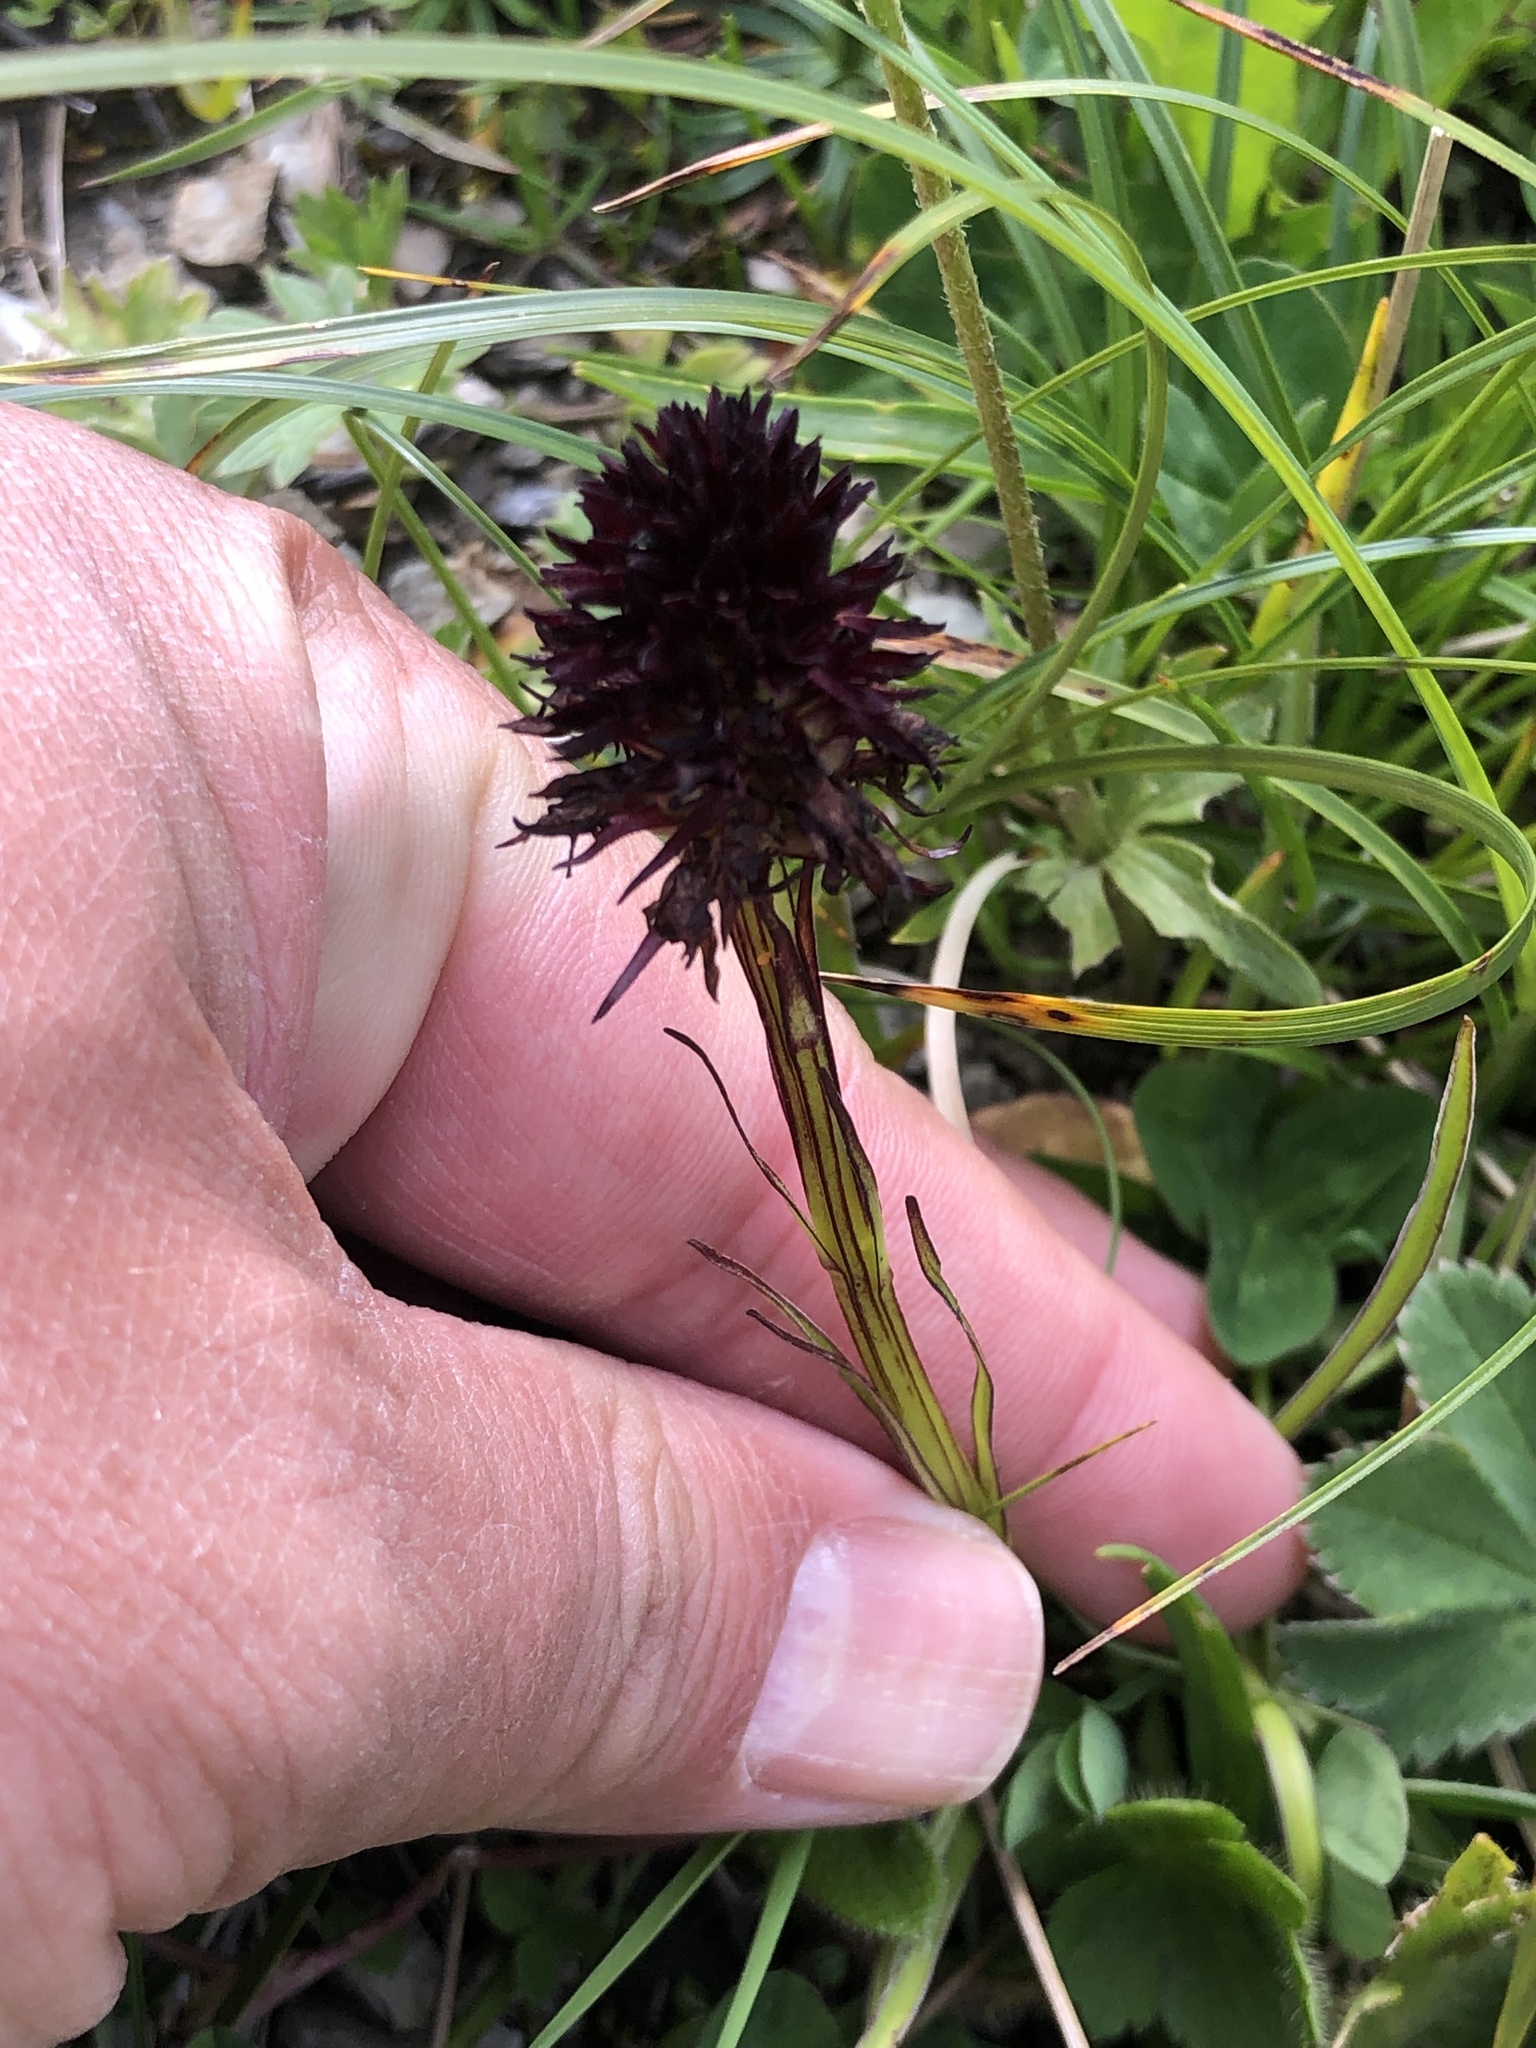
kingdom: Plantae
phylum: Tracheophyta
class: Liliopsida
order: Asparagales
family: Orchidaceae
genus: Gymnadenia
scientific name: Gymnadenia rhellicani
